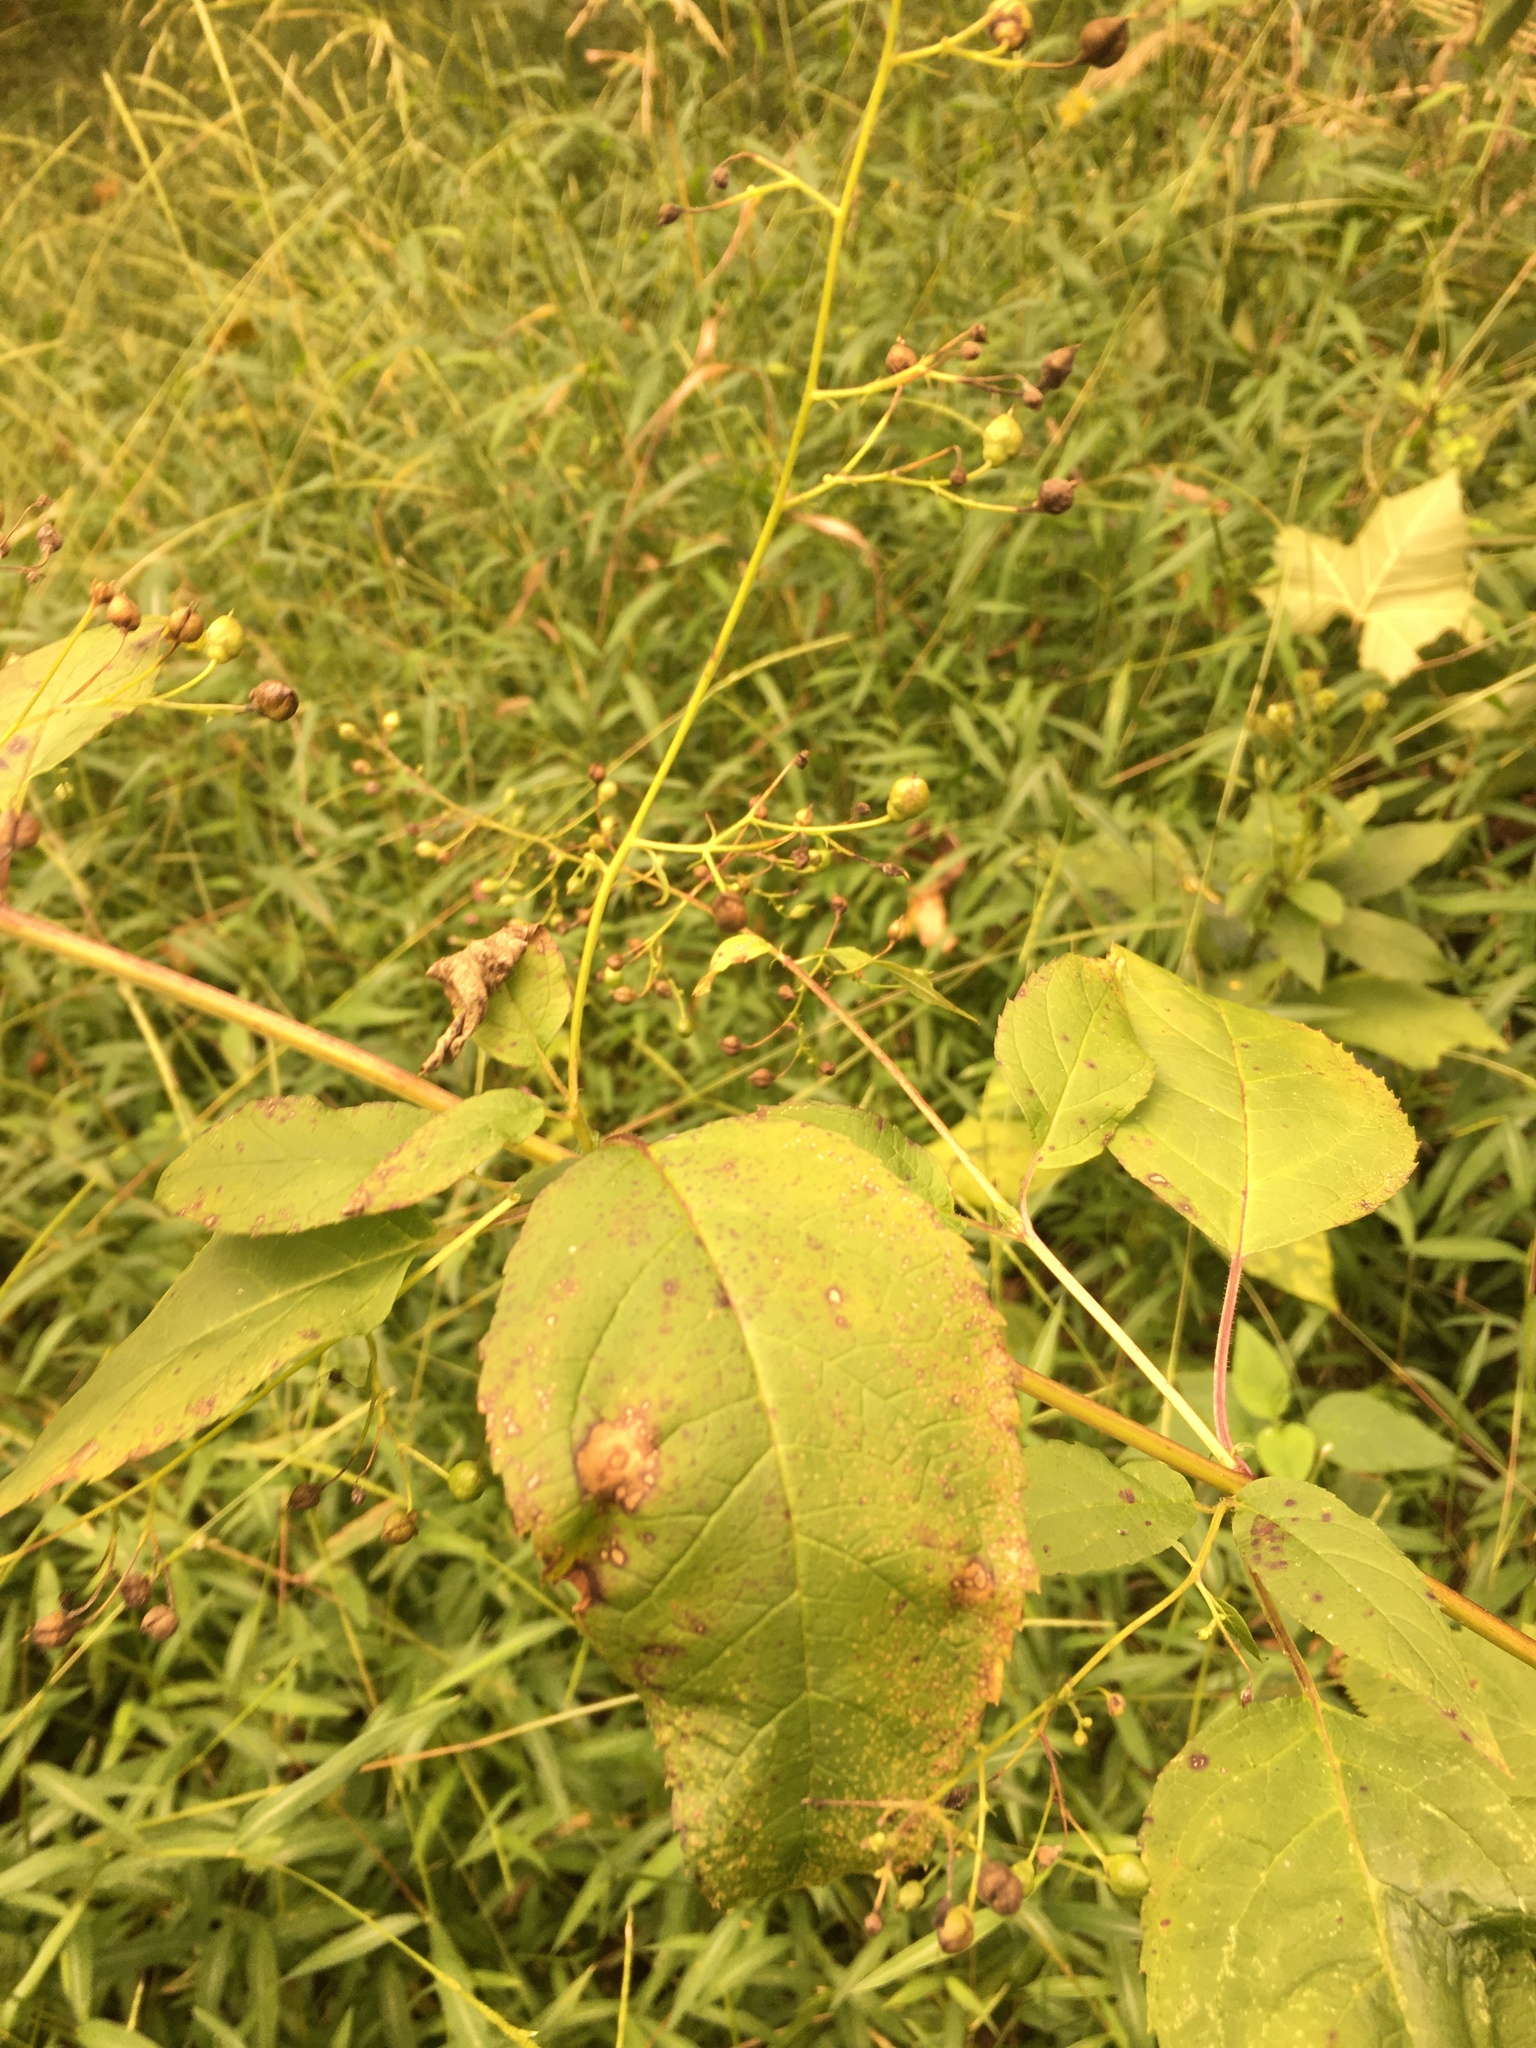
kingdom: Plantae
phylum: Tracheophyta
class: Magnoliopsida
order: Lamiales
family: Scrophulariaceae
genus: Scrophularia
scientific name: Scrophularia marilandica
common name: Eastern figwort
